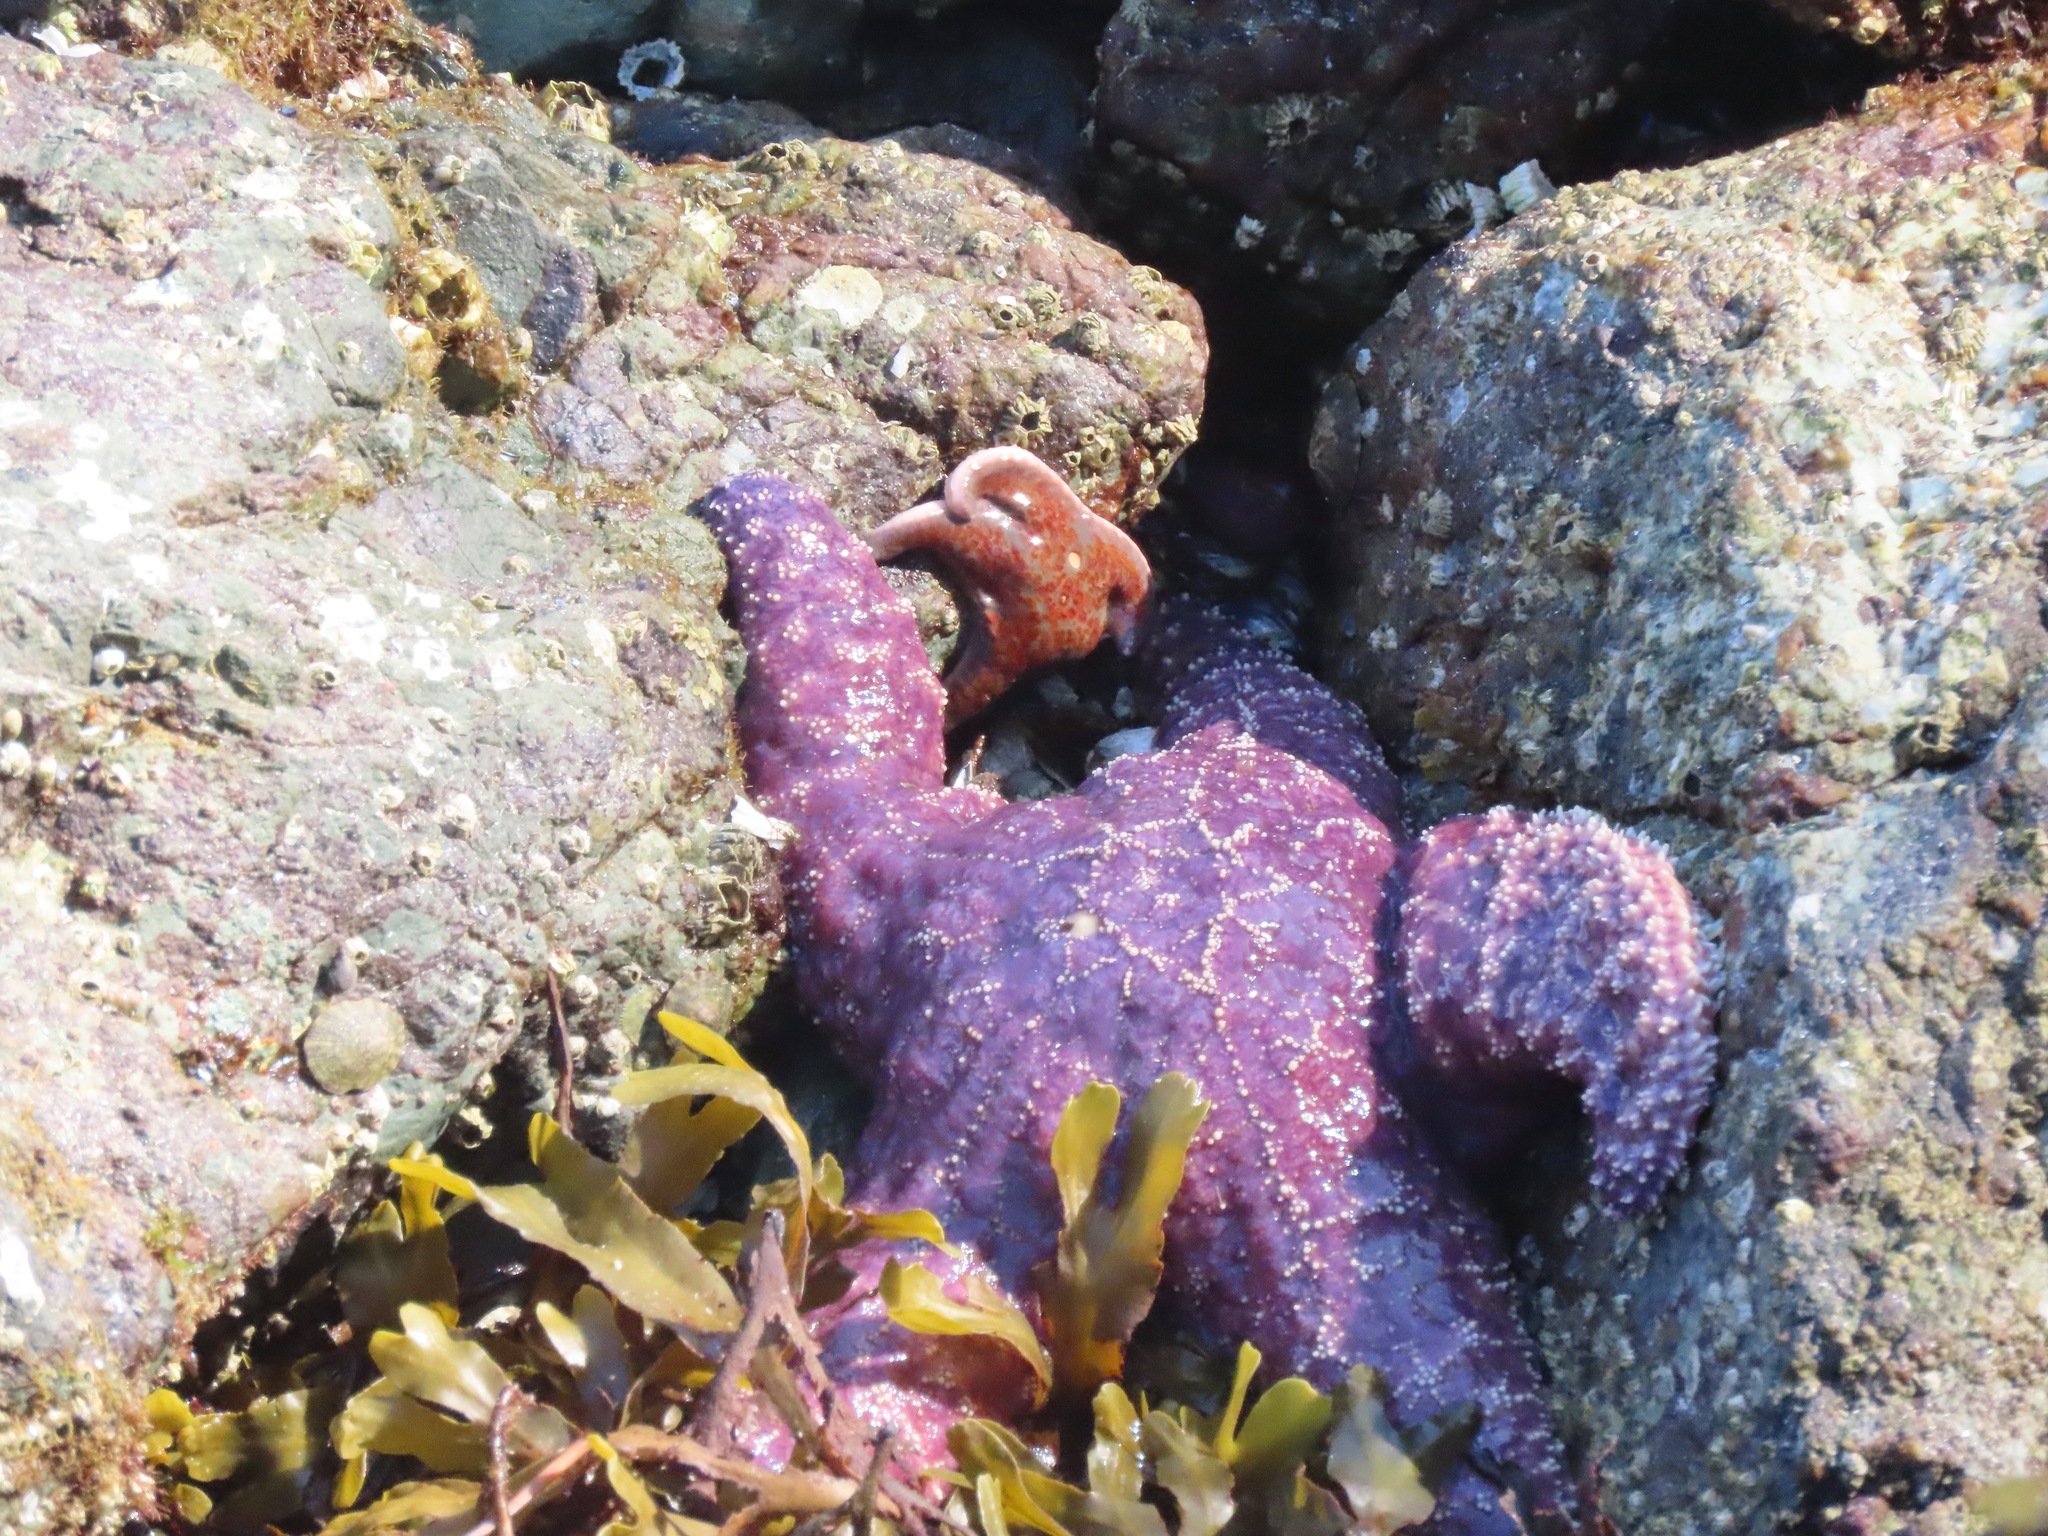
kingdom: Animalia
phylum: Echinodermata
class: Asteroidea
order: Forcipulatida
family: Asteriidae
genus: Pisaster
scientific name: Pisaster ochraceus
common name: Ochre stars
